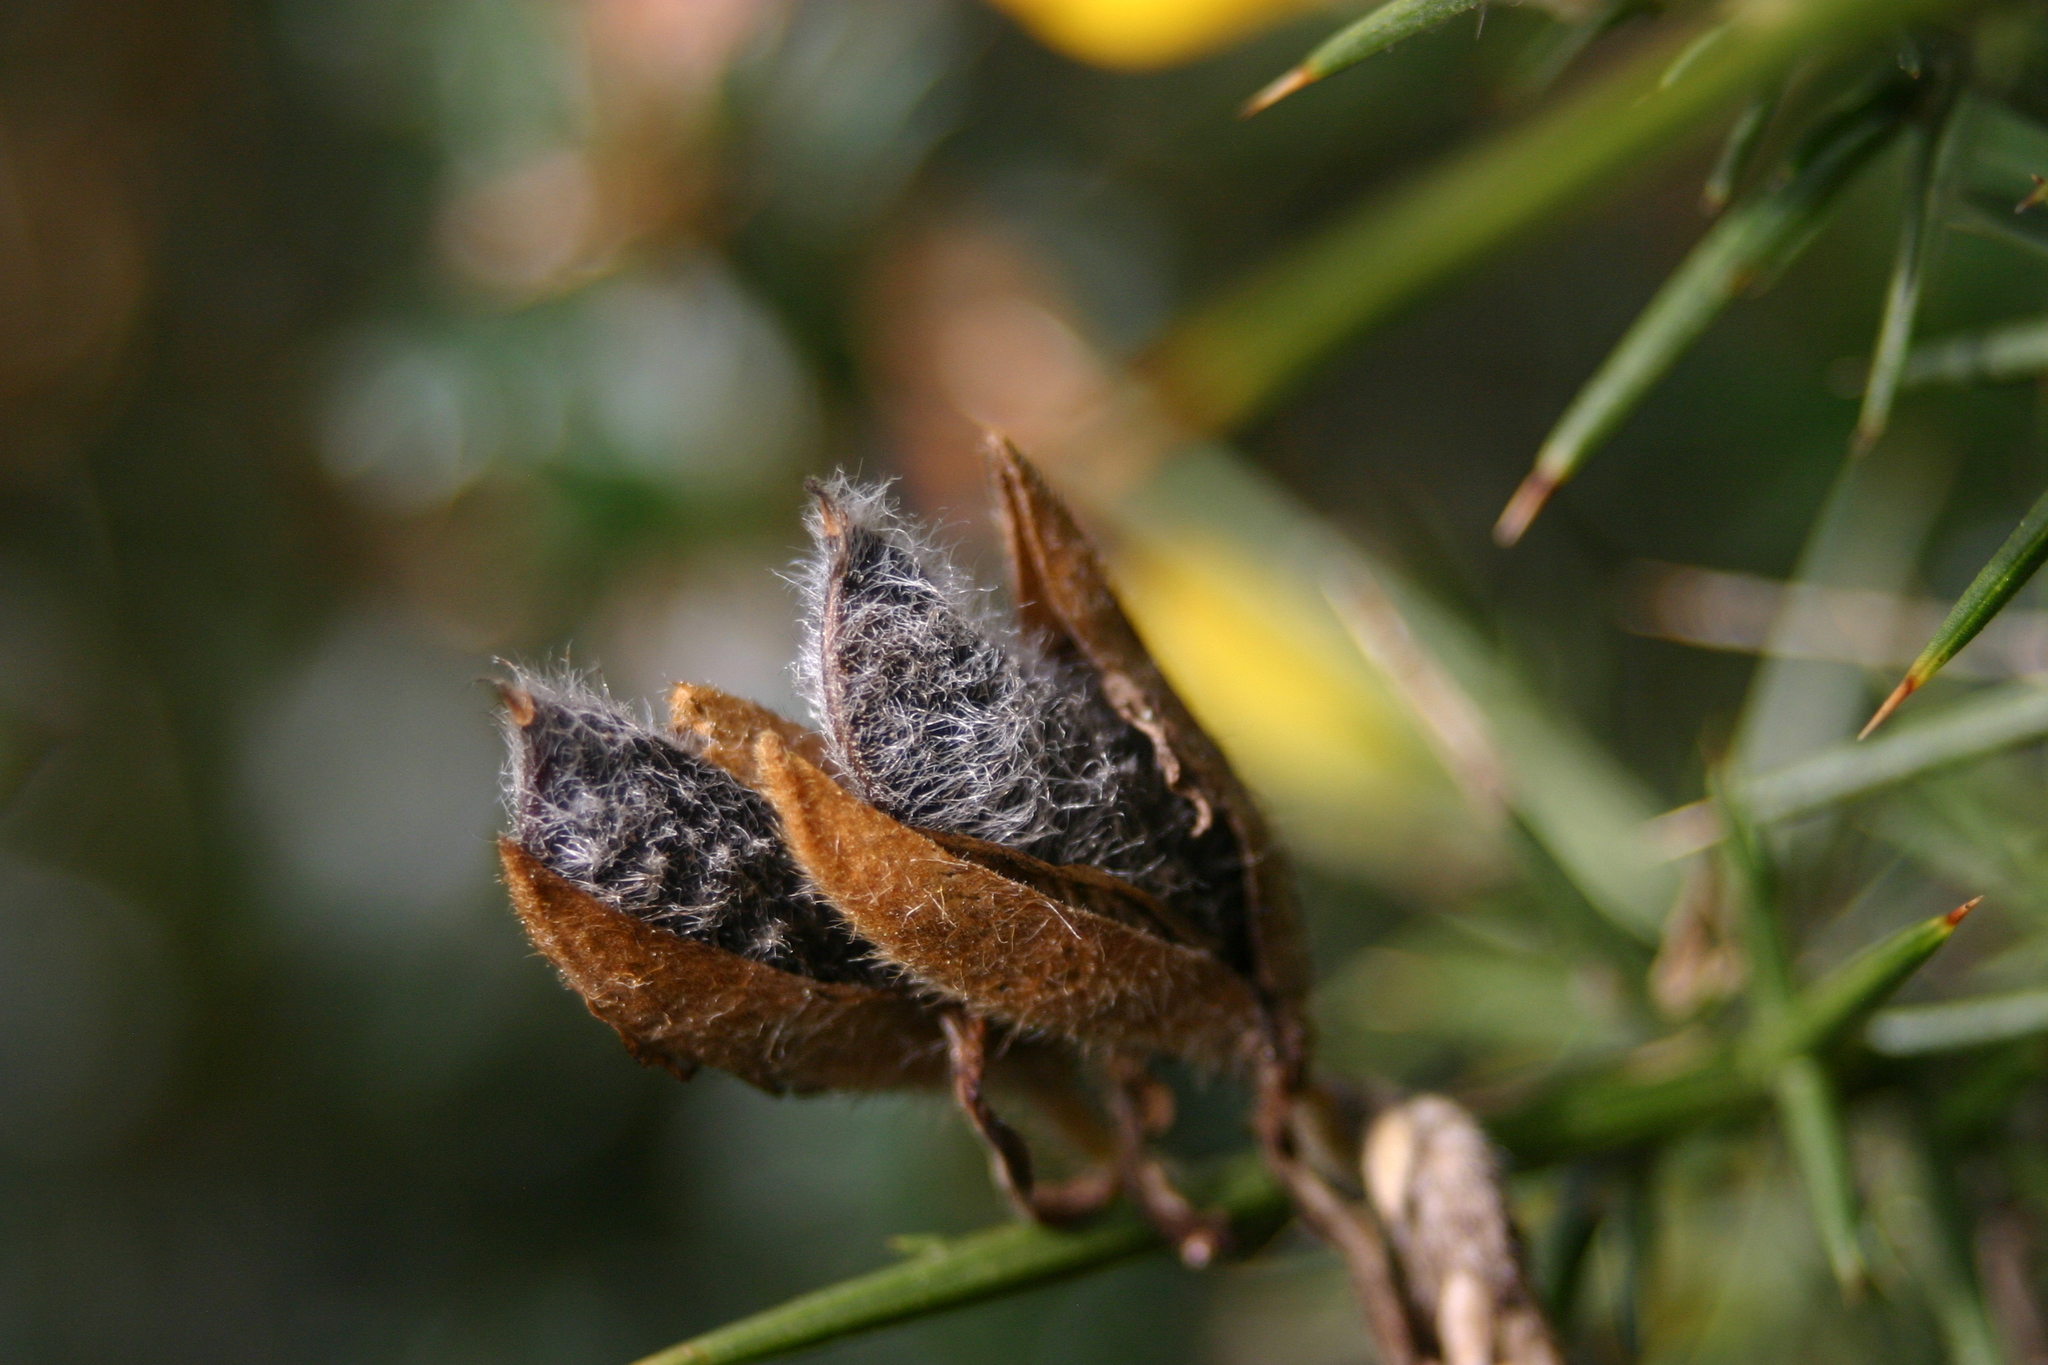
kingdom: Plantae
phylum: Tracheophyta
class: Magnoliopsida
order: Fabales
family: Fabaceae
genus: Ulex
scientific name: Ulex europaeus
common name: Common gorse
